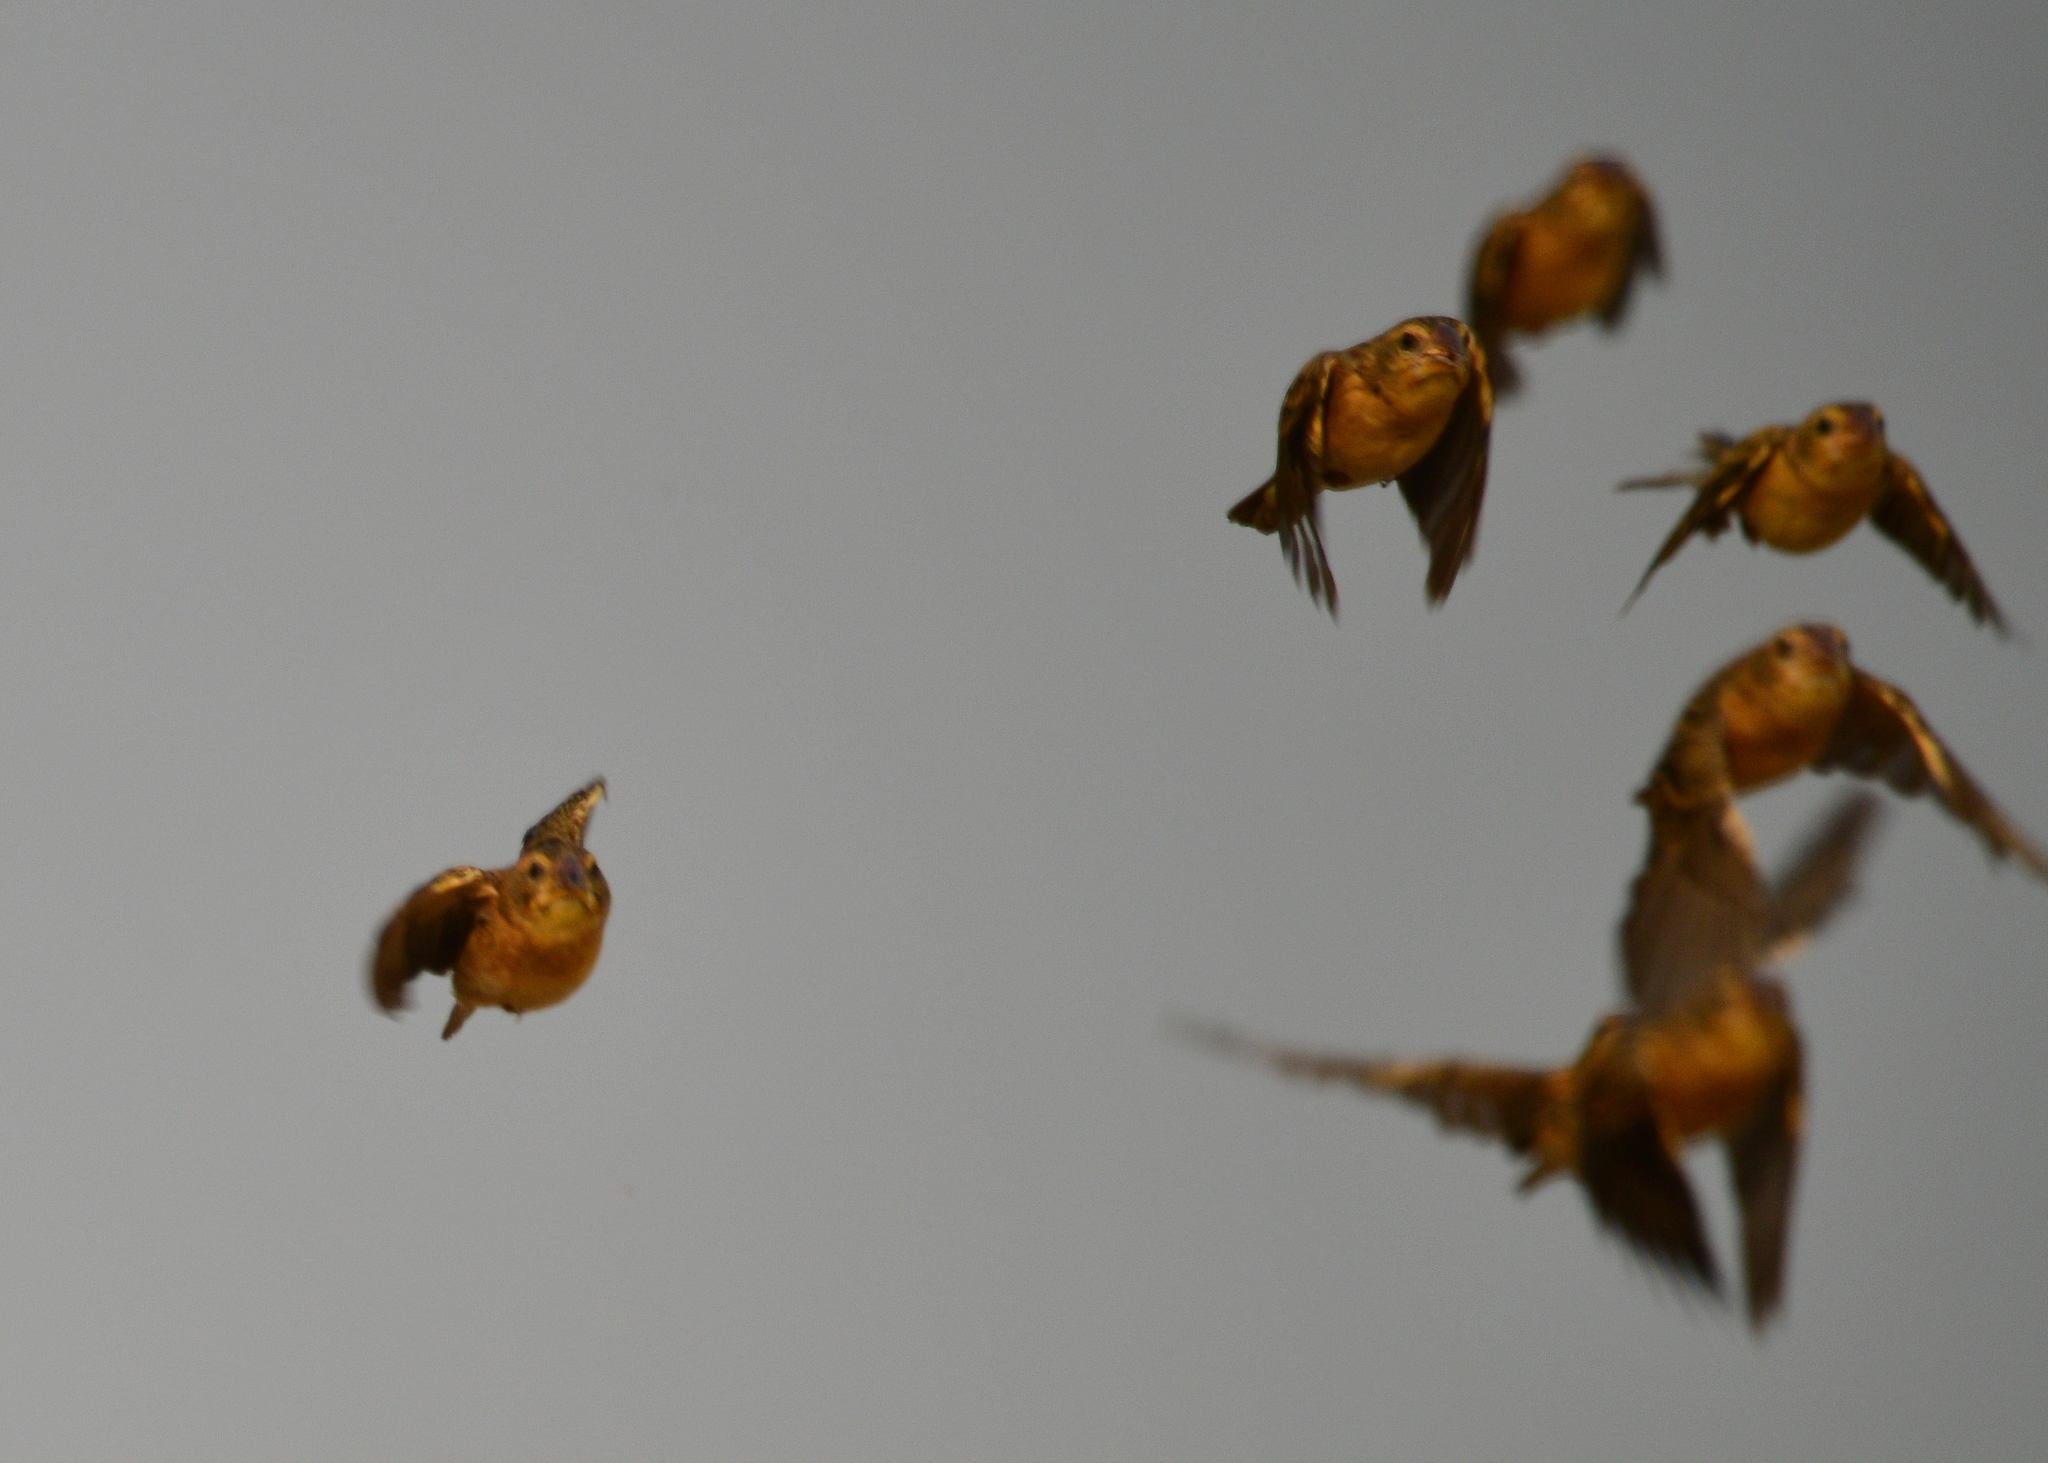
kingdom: Animalia
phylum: Chordata
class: Aves
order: Passeriformes
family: Ploceidae
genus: Ploceus
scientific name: Ploceus philippinus
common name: Baya weaver
